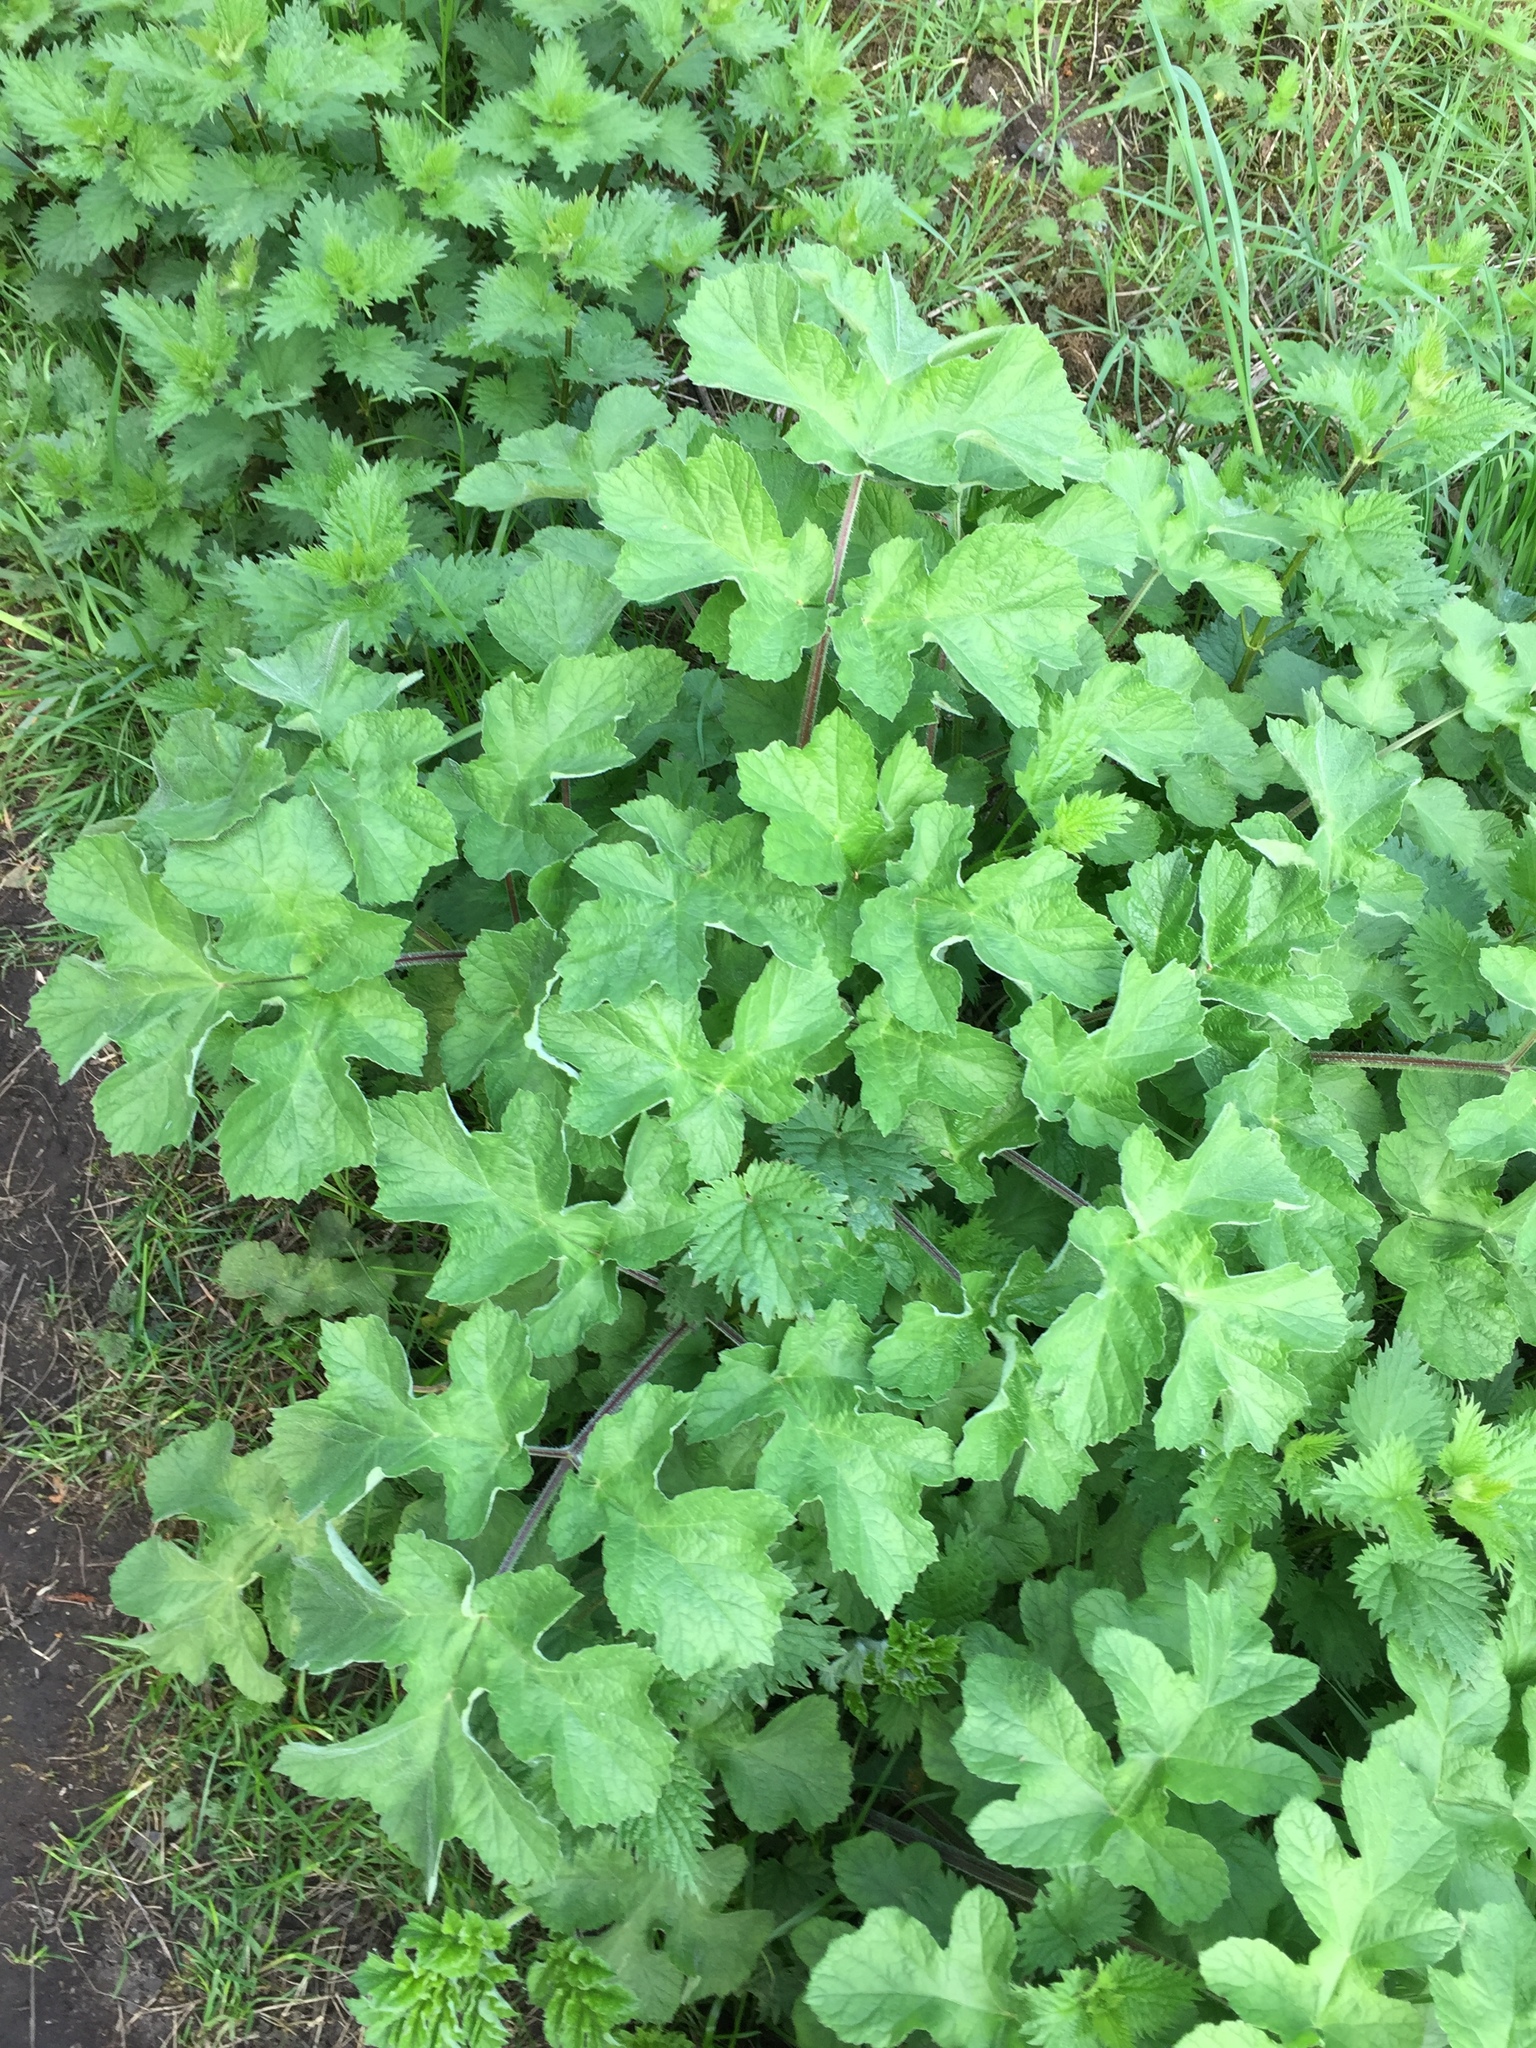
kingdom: Plantae
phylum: Tracheophyta
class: Magnoliopsida
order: Apiales
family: Apiaceae
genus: Heracleum
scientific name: Heracleum sphondylium
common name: Hogweed
